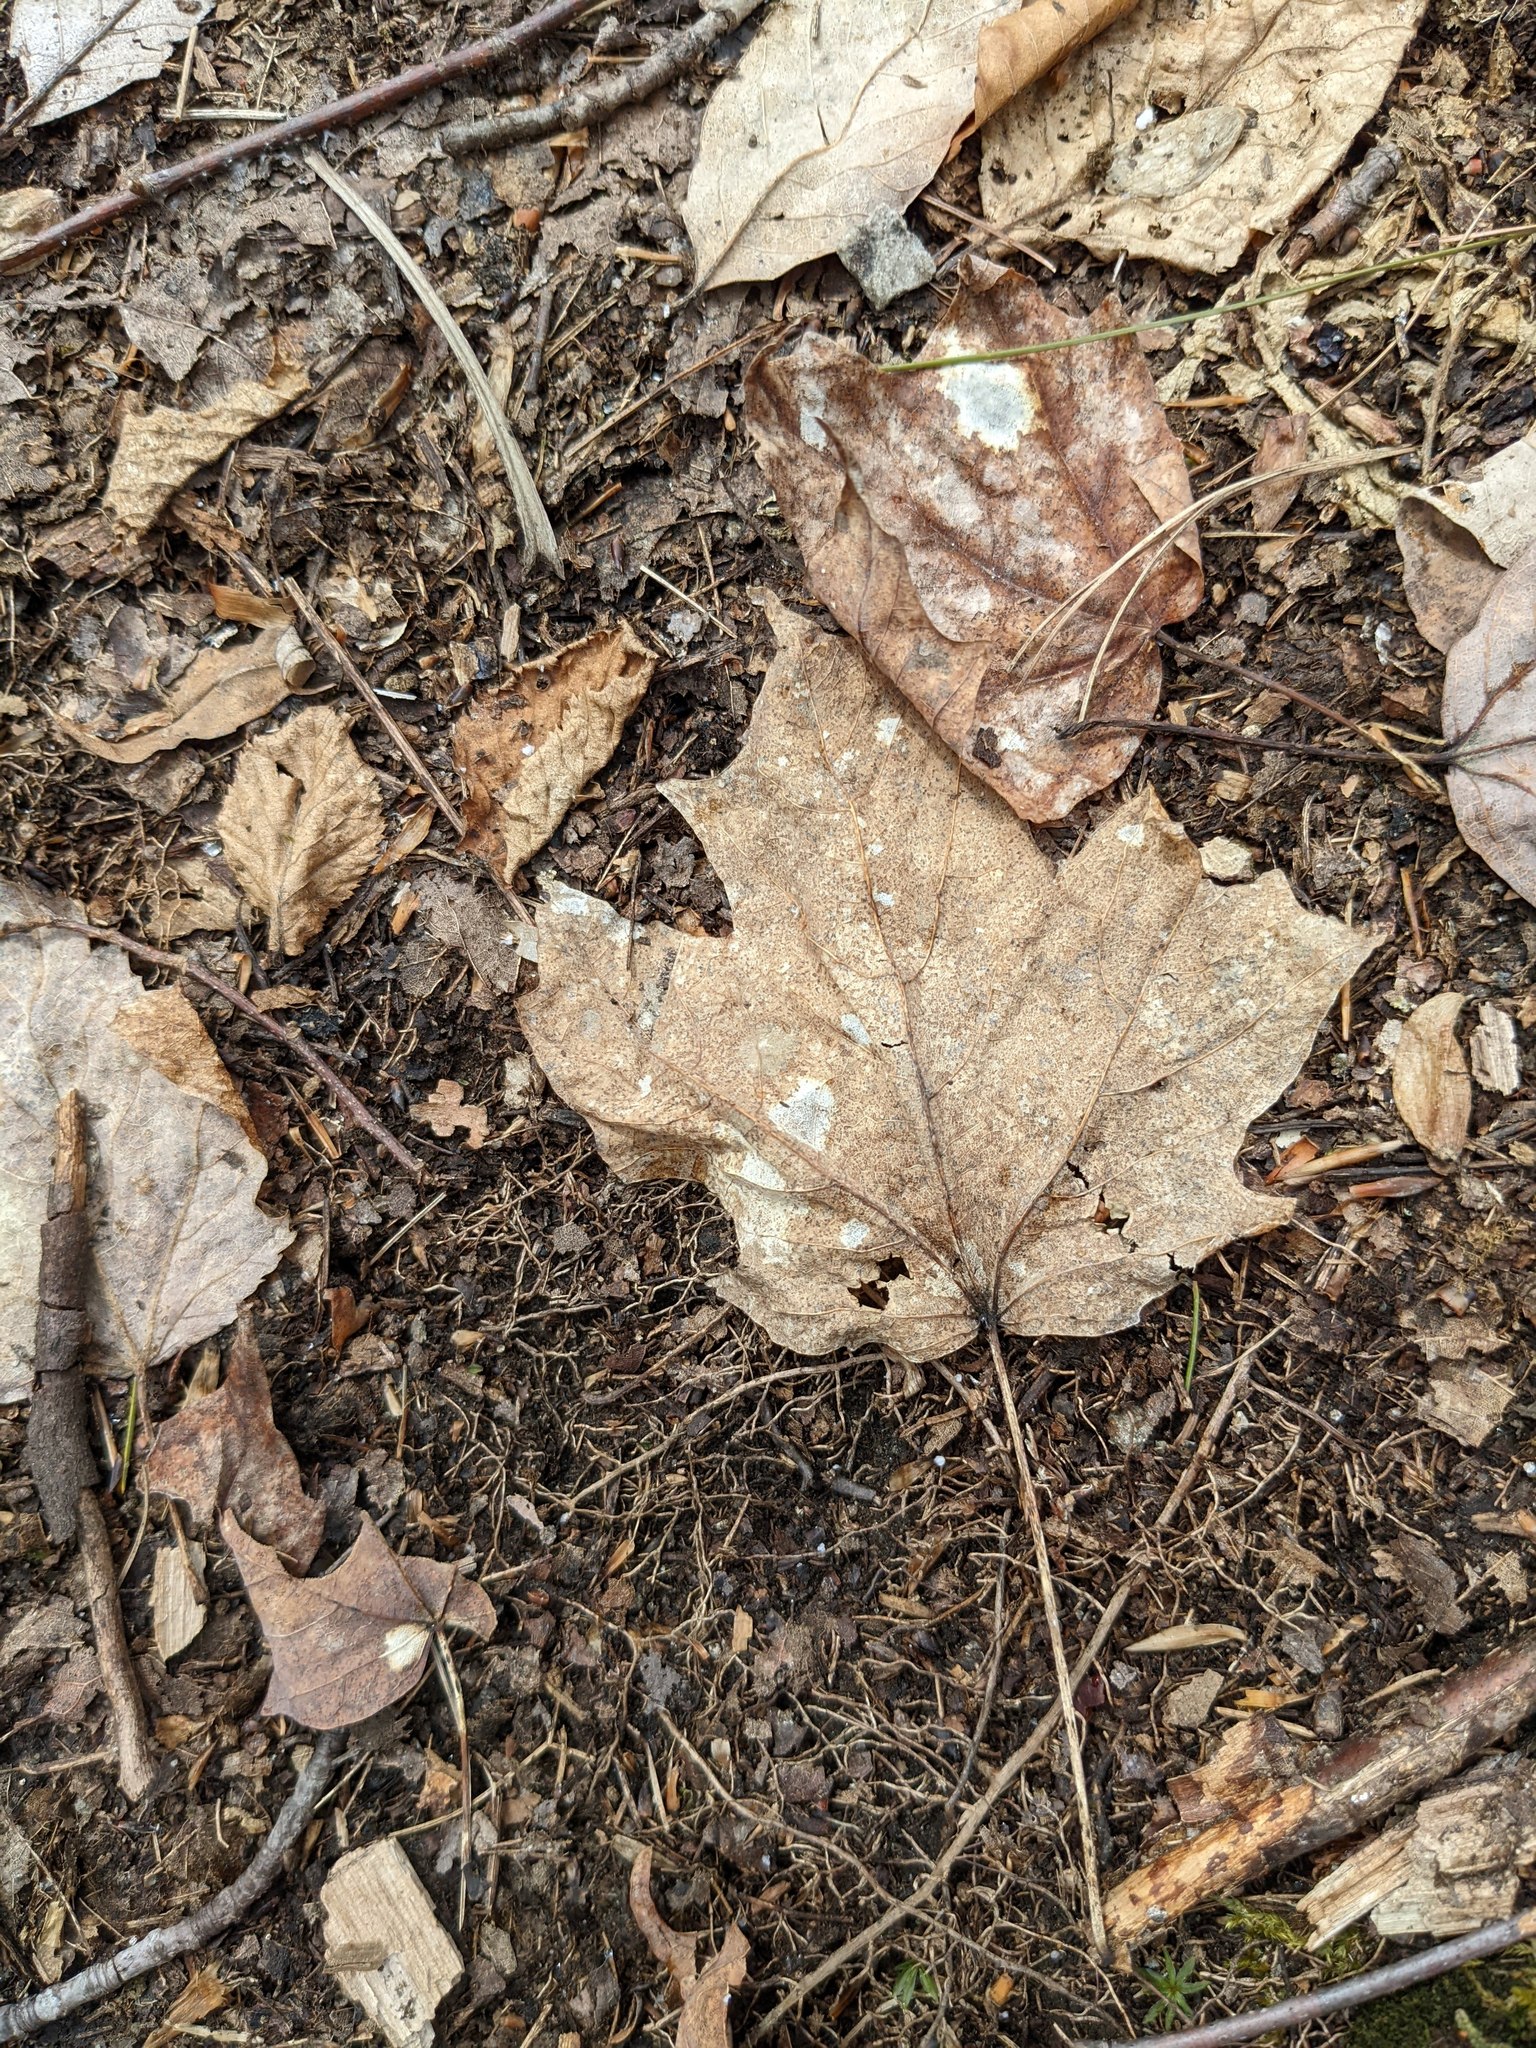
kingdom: Plantae
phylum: Tracheophyta
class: Magnoliopsida
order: Sapindales
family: Sapindaceae
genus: Acer
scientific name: Acer saccharum
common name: Sugar maple
